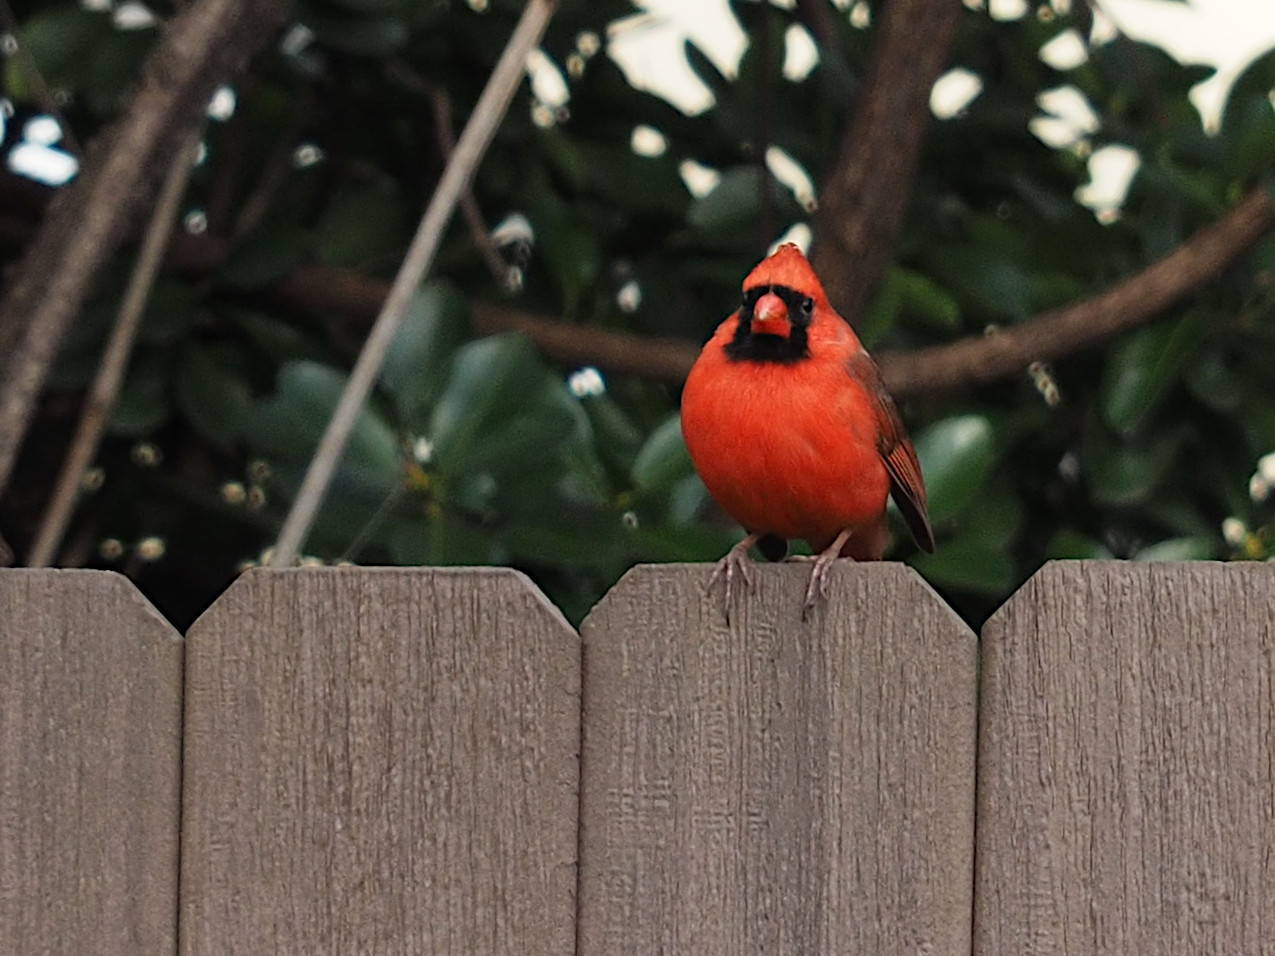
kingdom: Animalia
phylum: Chordata
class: Aves
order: Passeriformes
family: Cardinalidae
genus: Cardinalis
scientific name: Cardinalis cardinalis
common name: Northern cardinal
